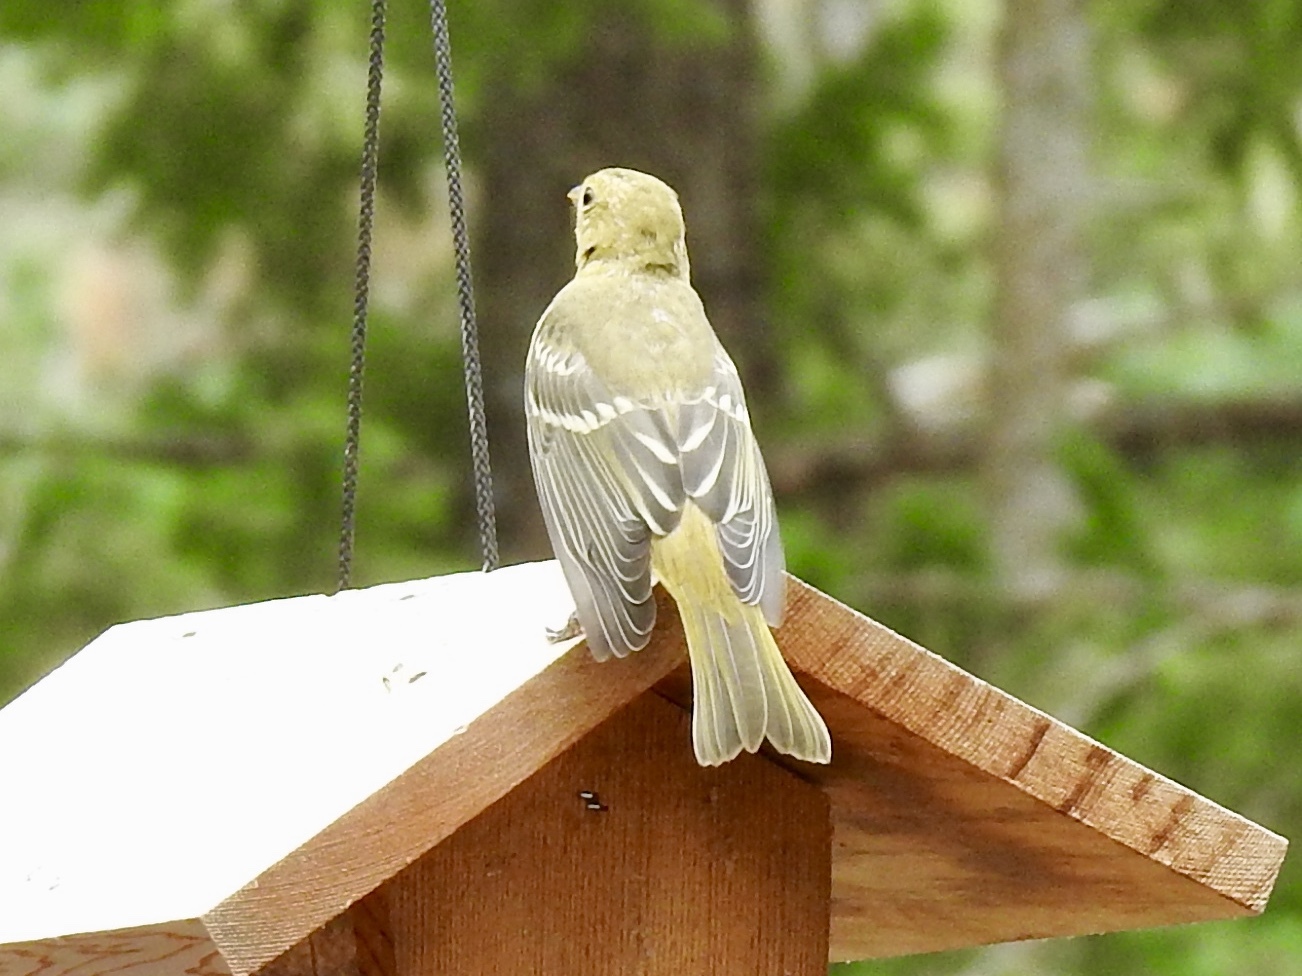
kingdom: Animalia
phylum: Chordata
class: Aves
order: Passeriformes
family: Cardinalidae
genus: Piranga
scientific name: Piranga ludoviciana
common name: Western tanager
